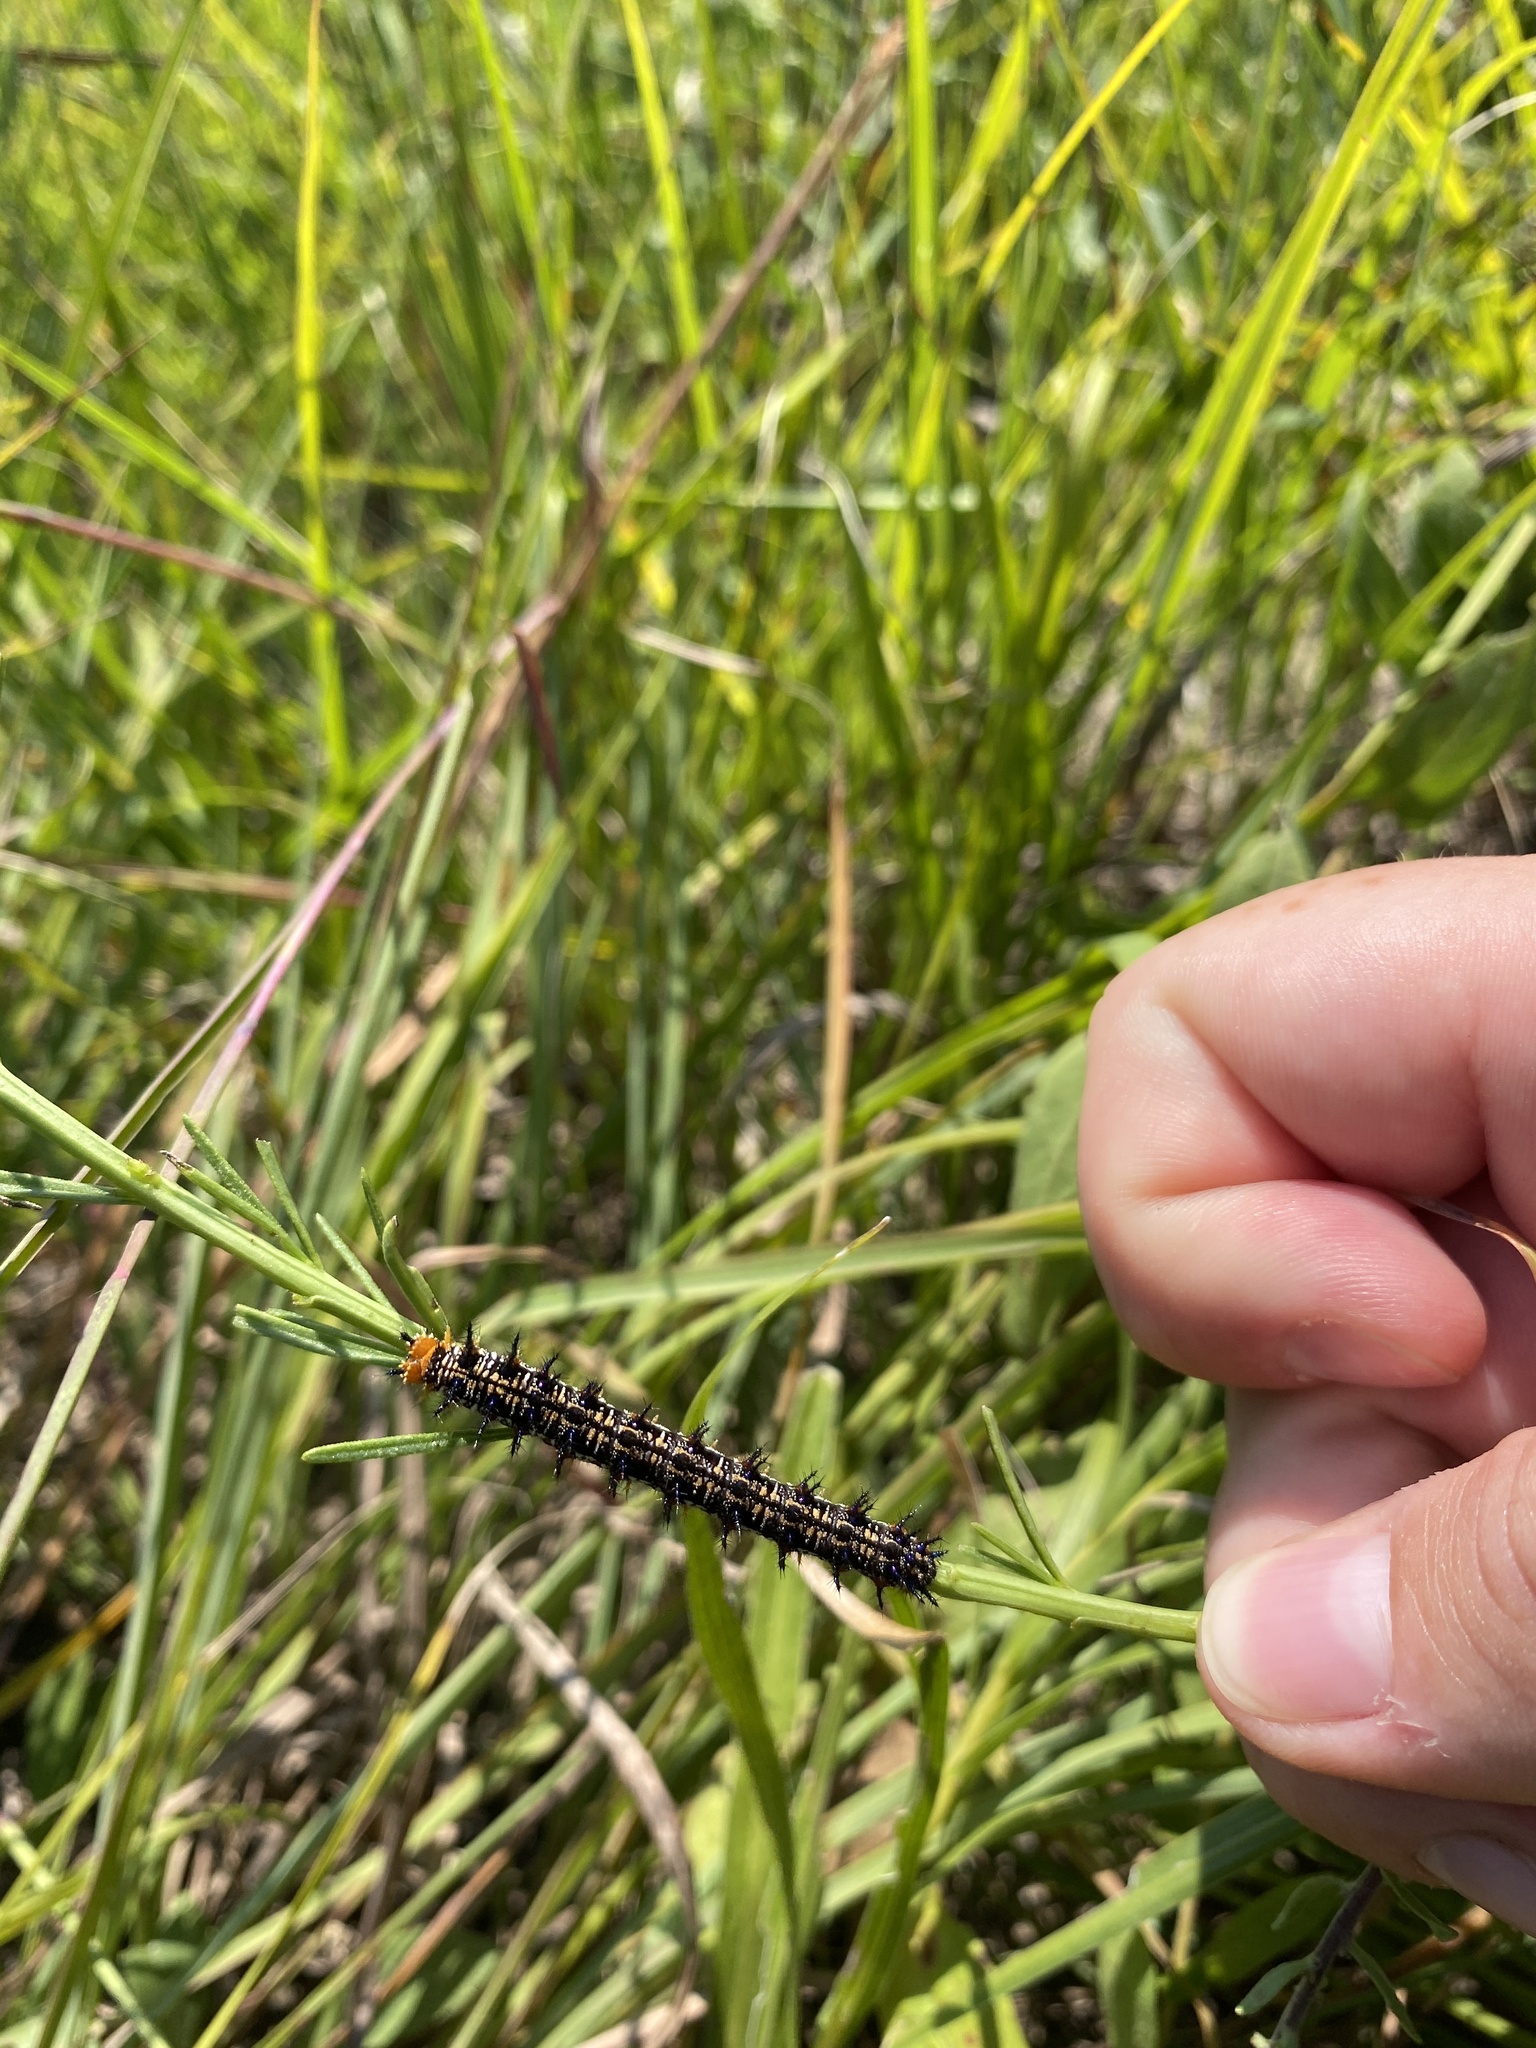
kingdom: Animalia
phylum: Arthropoda
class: Insecta
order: Lepidoptera
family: Nymphalidae
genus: Junonia
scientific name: Junonia coenia
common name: Common buckeye
